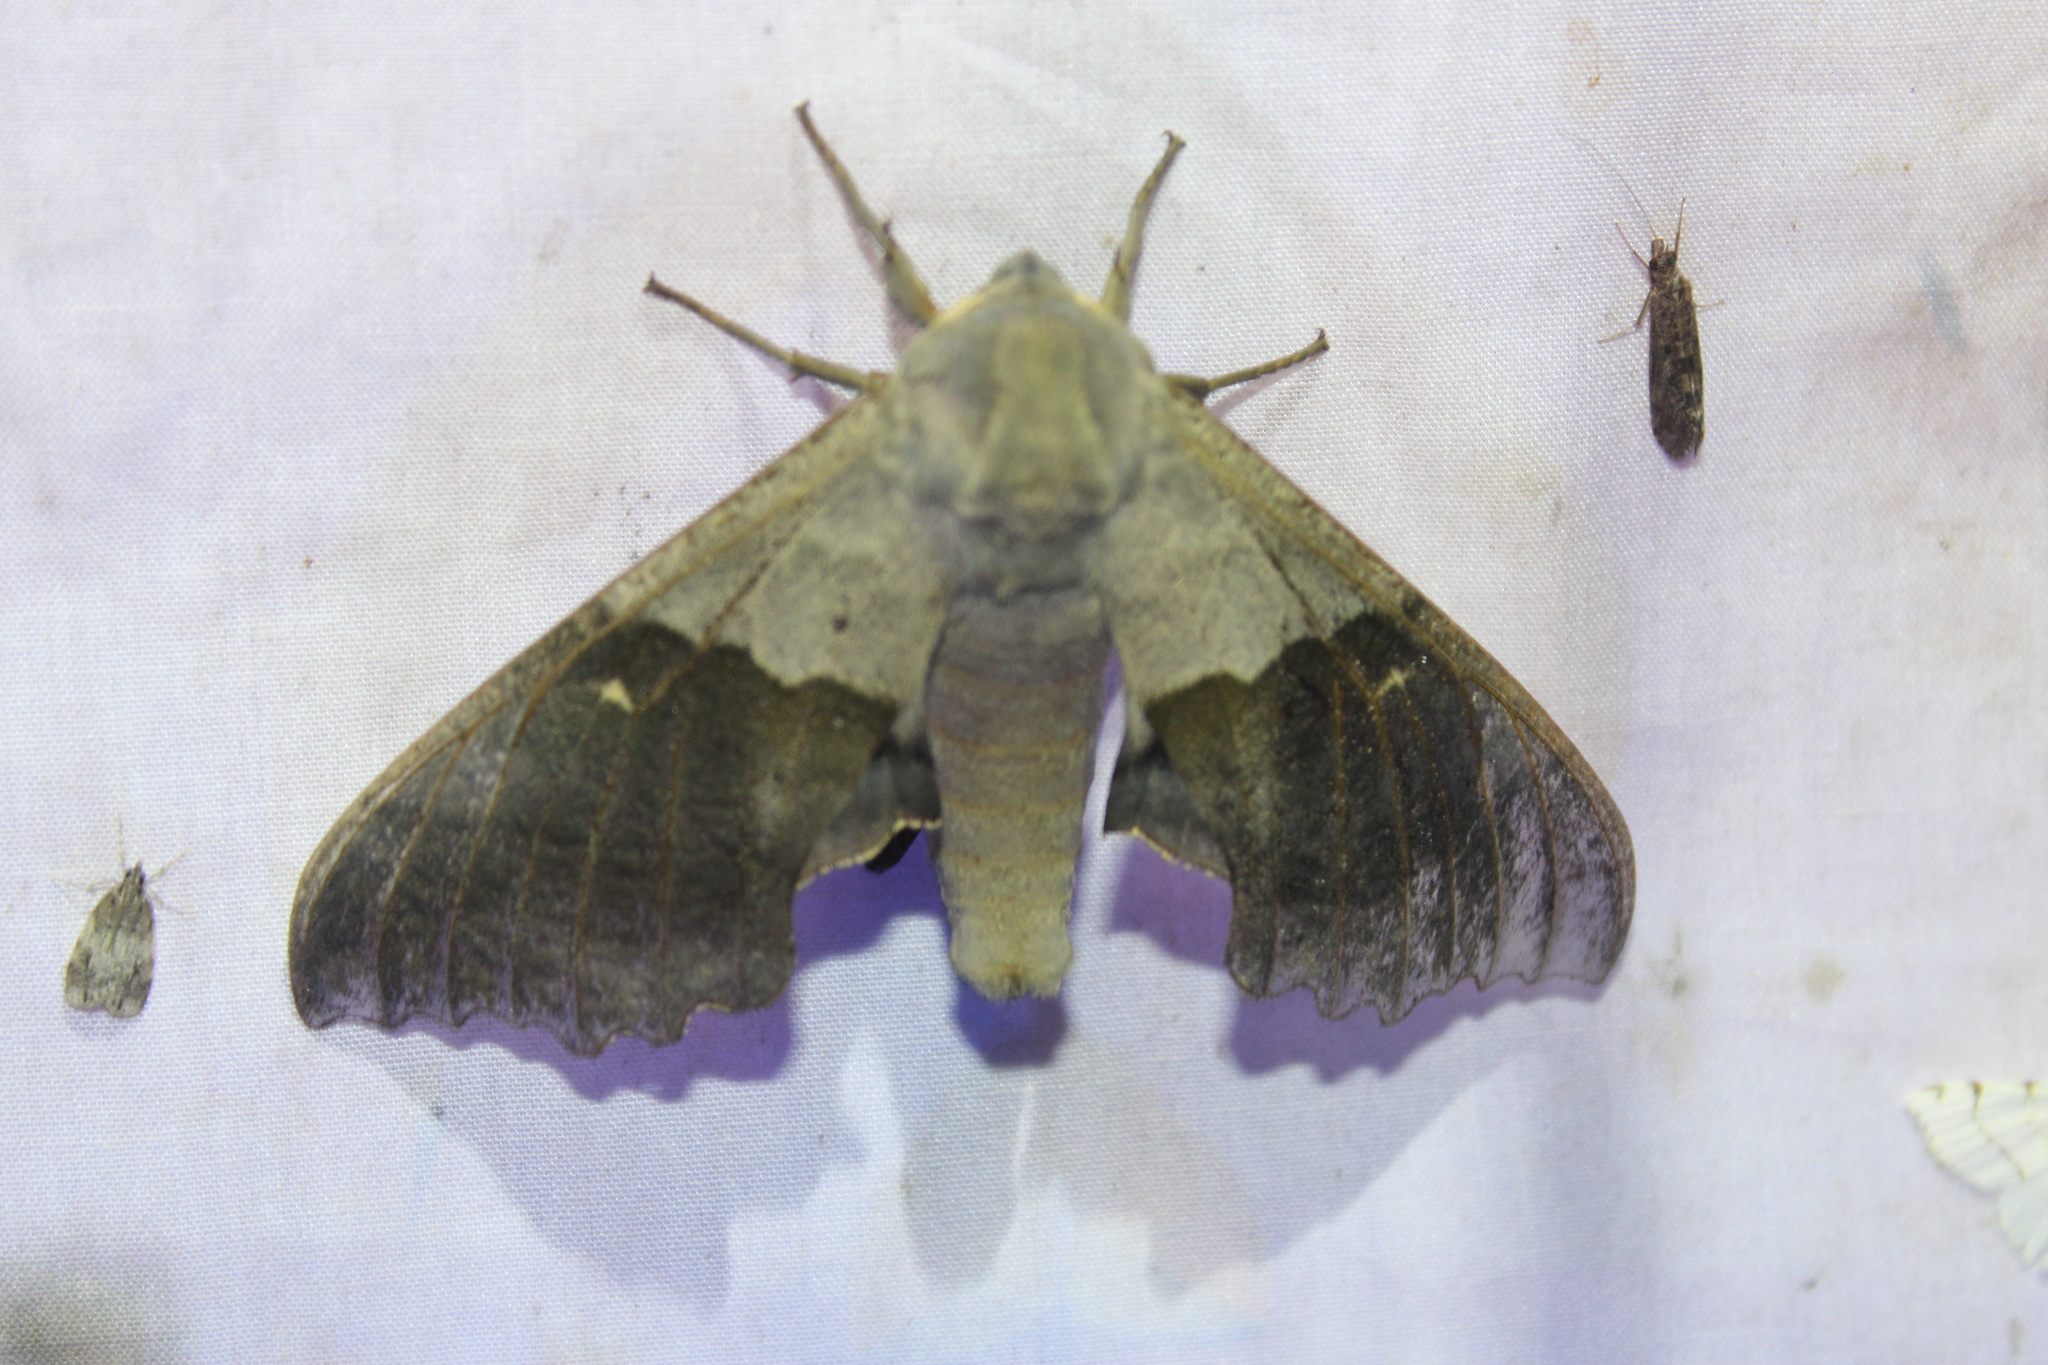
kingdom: Animalia
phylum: Arthropoda
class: Insecta
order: Lepidoptera
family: Sphingidae
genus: Pachysphinx
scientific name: Pachysphinx modesta
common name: Big poplar sphinx
